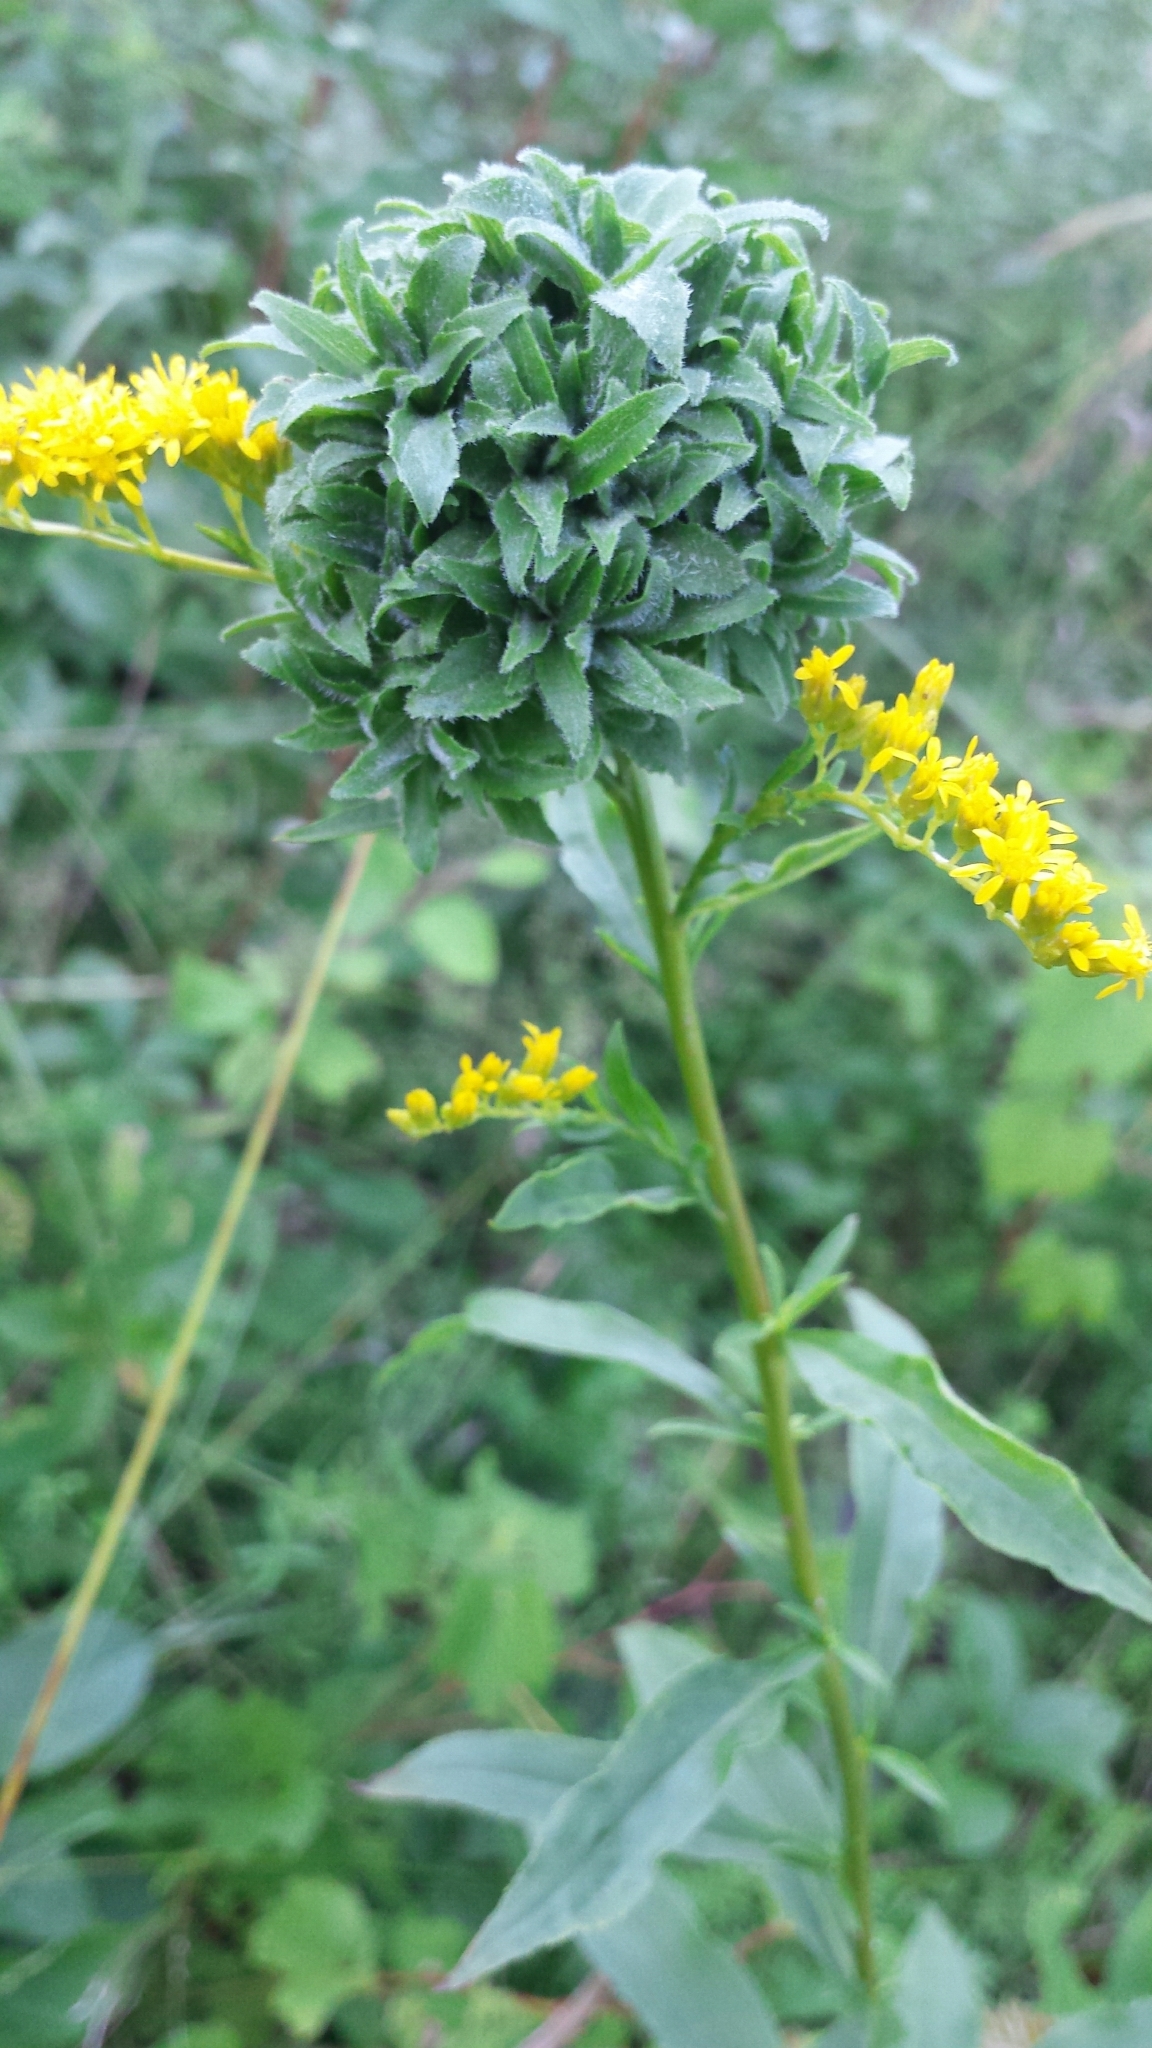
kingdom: Animalia
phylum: Arthropoda
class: Insecta
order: Diptera
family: Cecidomyiidae
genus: Asphondylia
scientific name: Asphondylia monacha
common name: Nun midge
